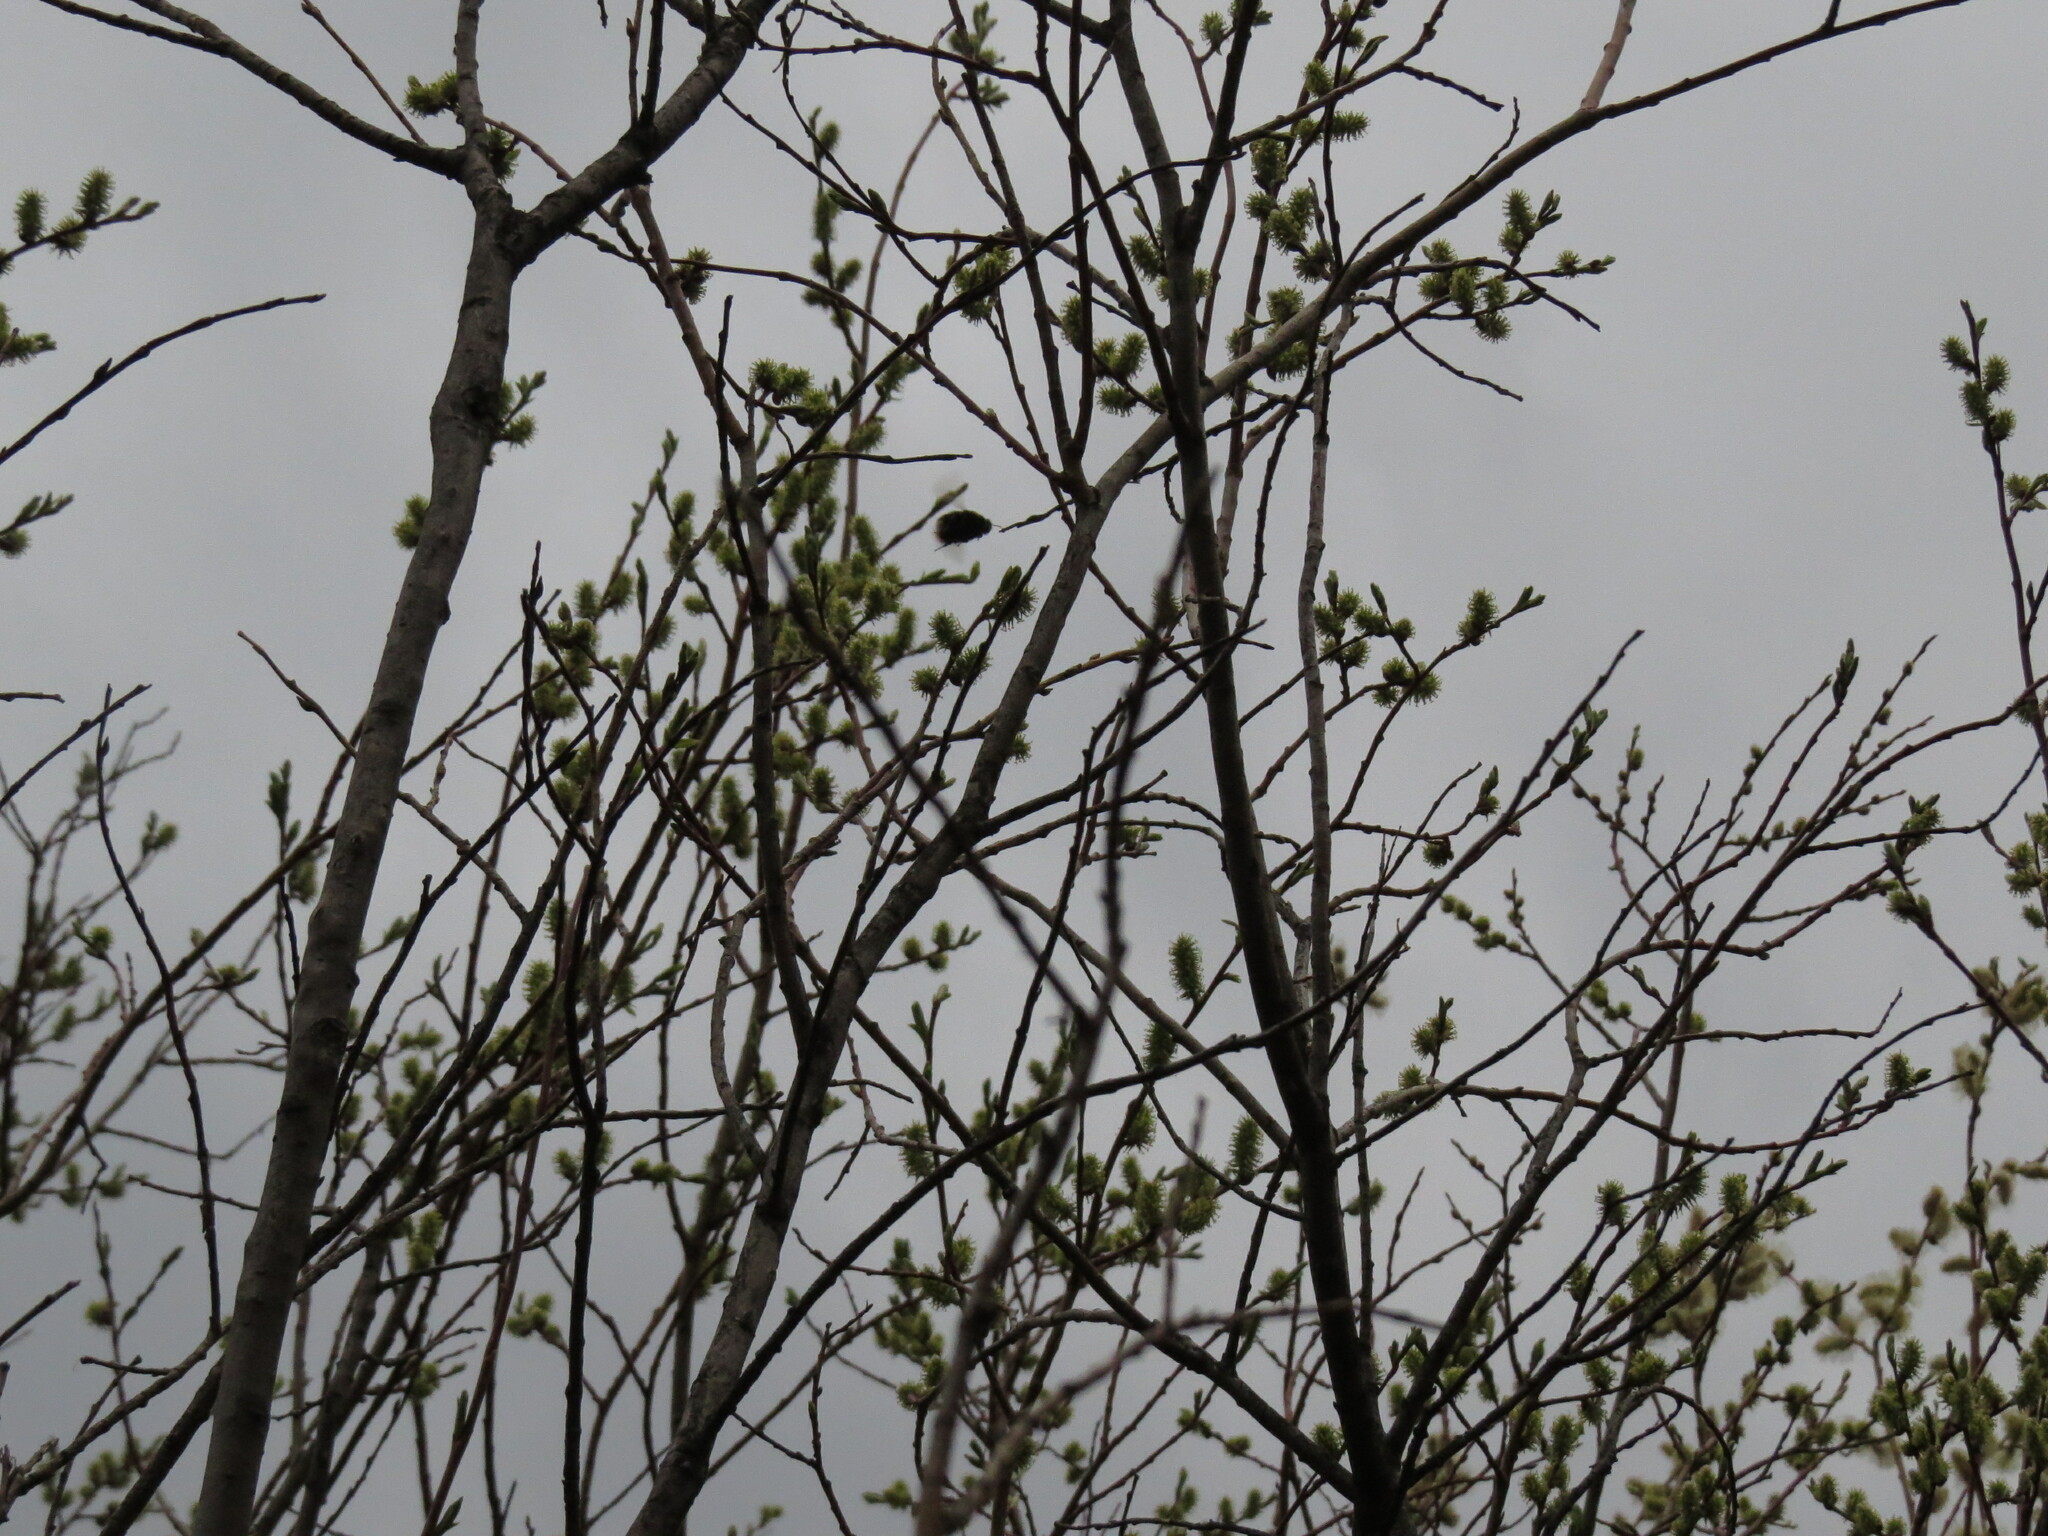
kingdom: Animalia
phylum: Arthropoda
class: Insecta
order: Hymenoptera
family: Apidae
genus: Bombus
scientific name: Bombus
